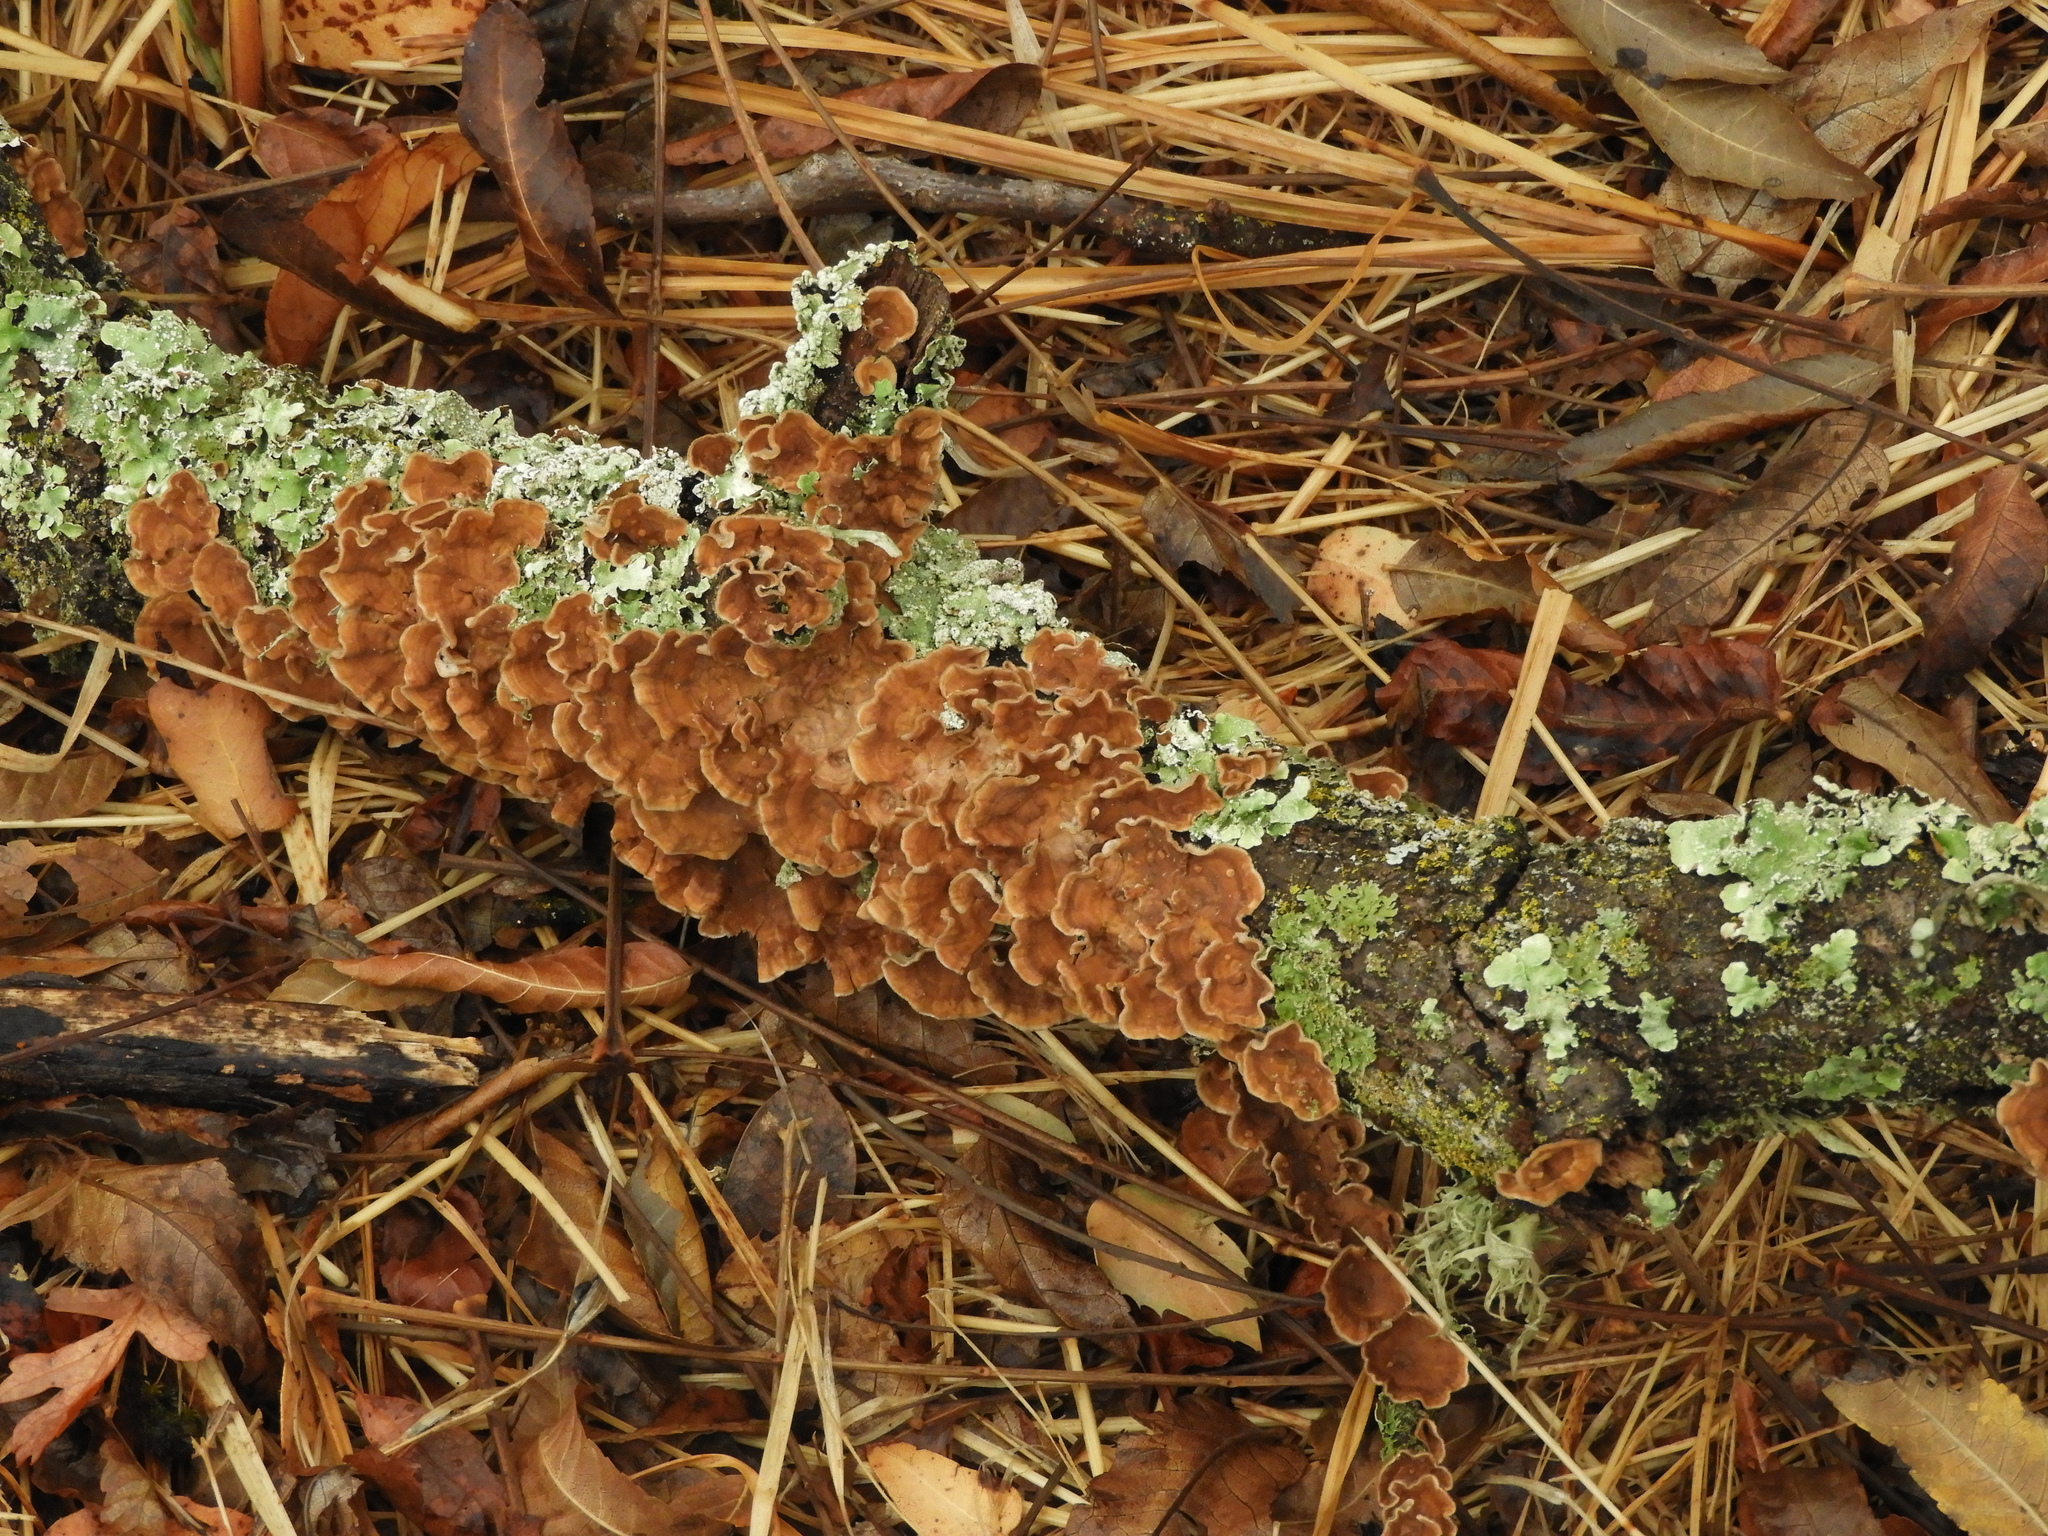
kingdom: Fungi
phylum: Basidiomycota
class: Agaricomycetes
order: Russulales
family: Stereaceae
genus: Stereum
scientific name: Stereum hirsutum
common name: Hairy curtain crust
